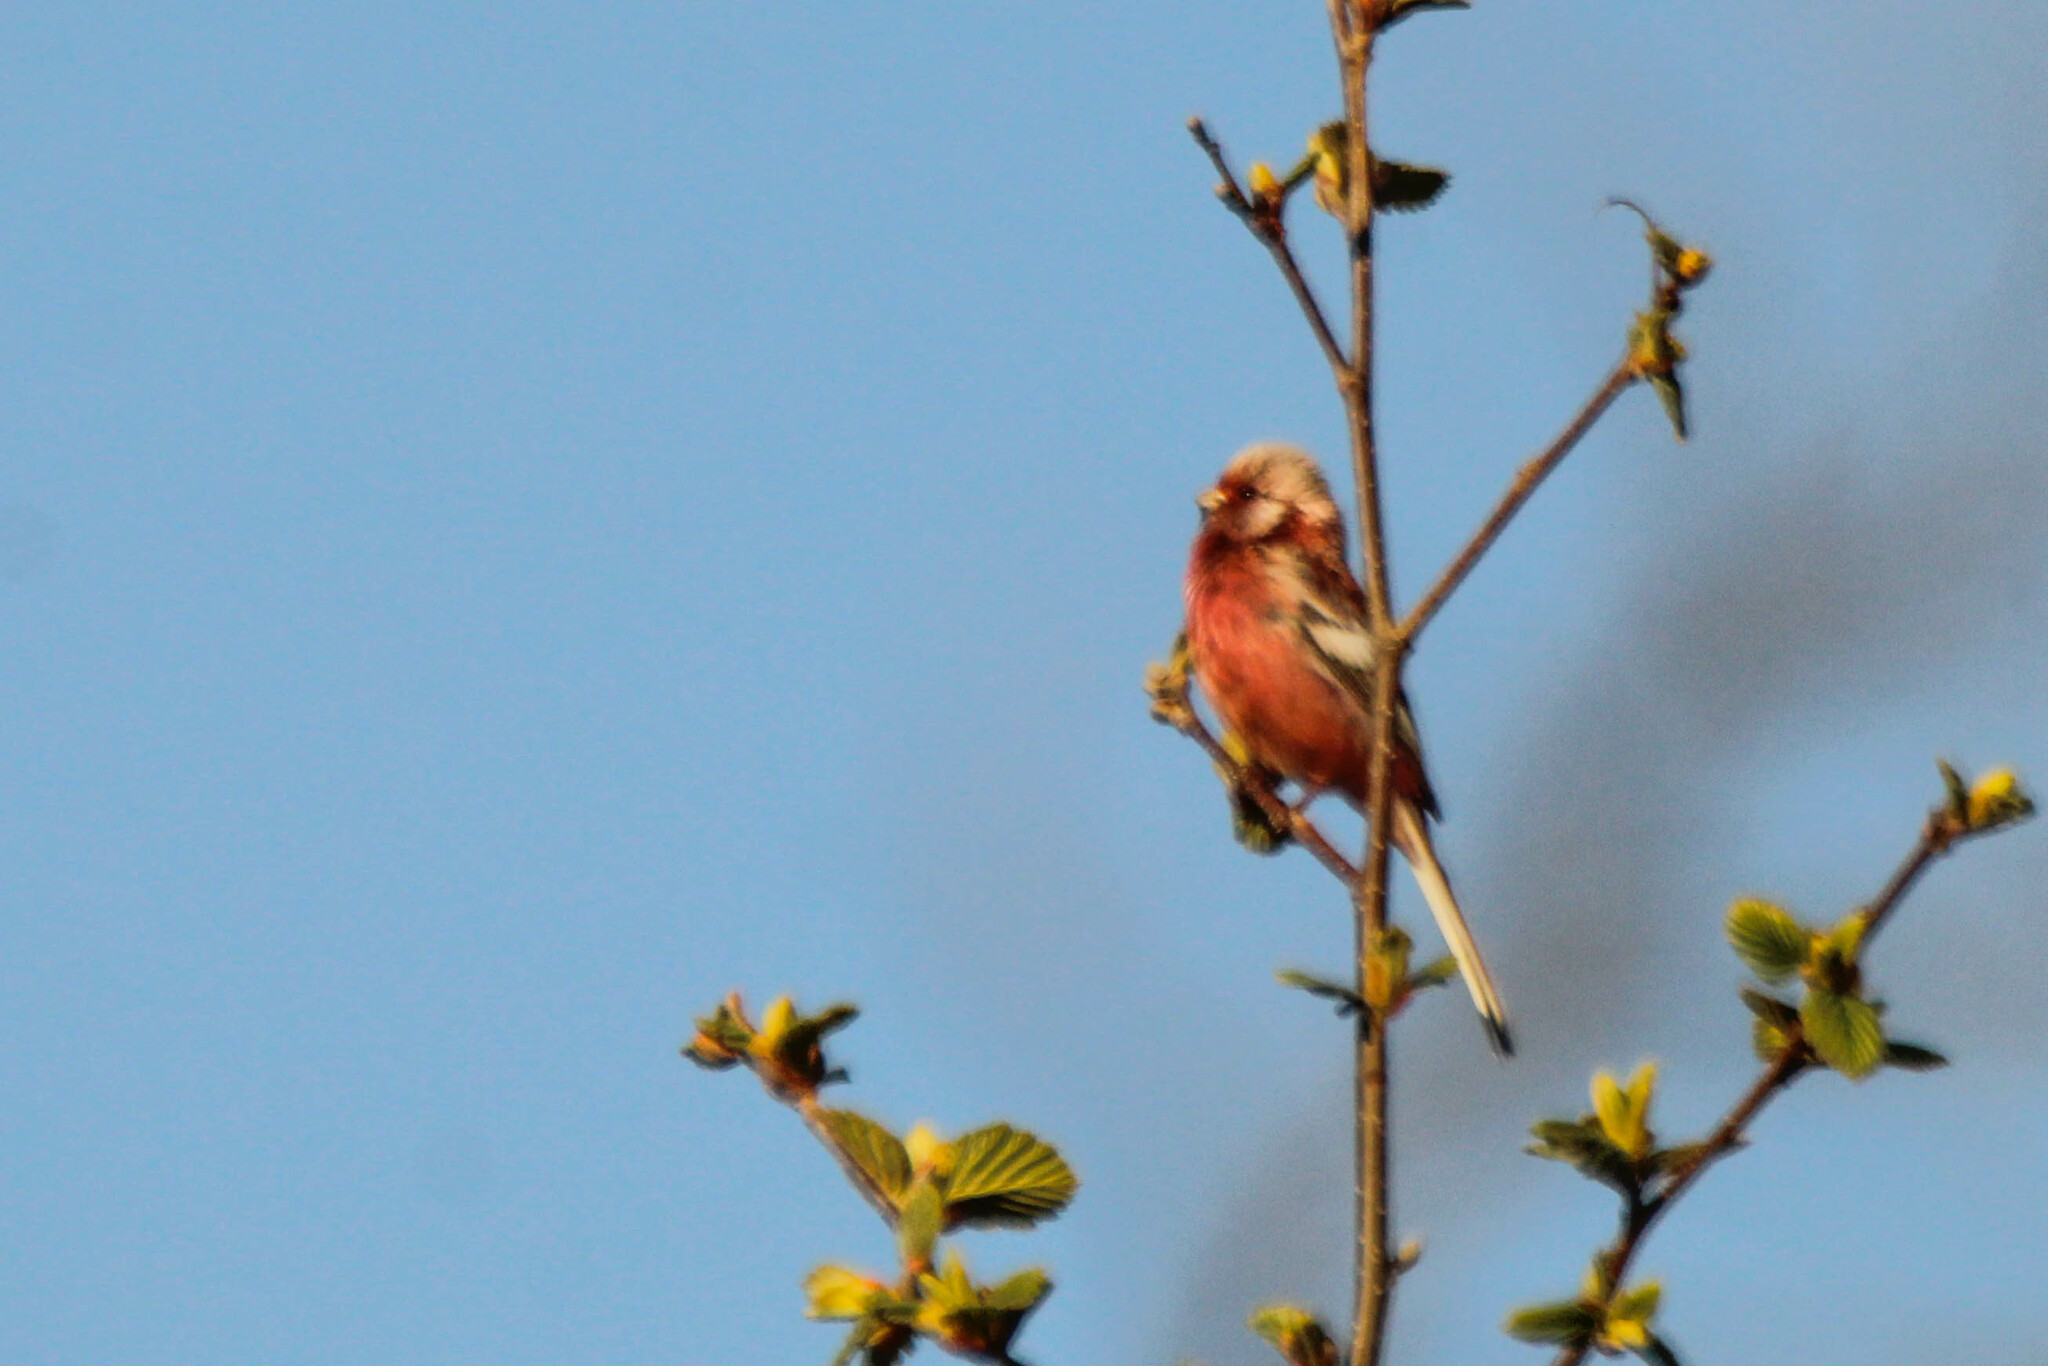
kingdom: Animalia
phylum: Chordata
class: Aves
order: Passeriformes
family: Fringillidae
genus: Carpodacus
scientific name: Carpodacus sibiricus
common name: Long-tailed rosefinch
